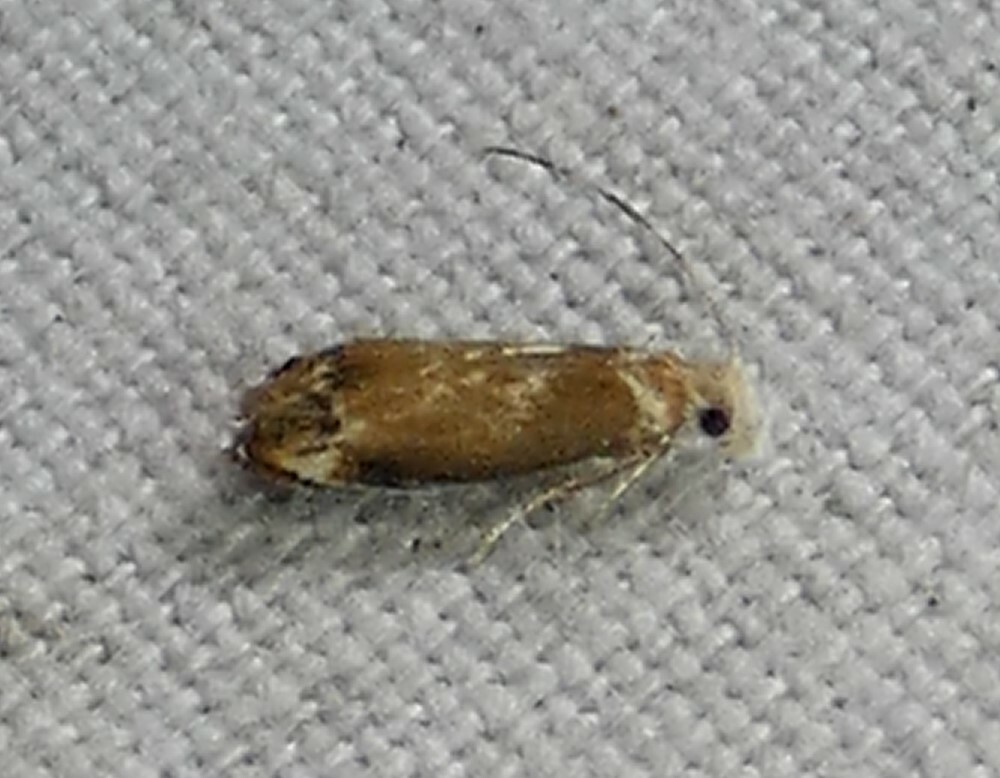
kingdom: Animalia
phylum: Arthropoda
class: Insecta
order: Lepidoptera
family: Dryadaulidae
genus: Dryadaula
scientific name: Dryadaula terpsichorella
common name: Dancing moth
